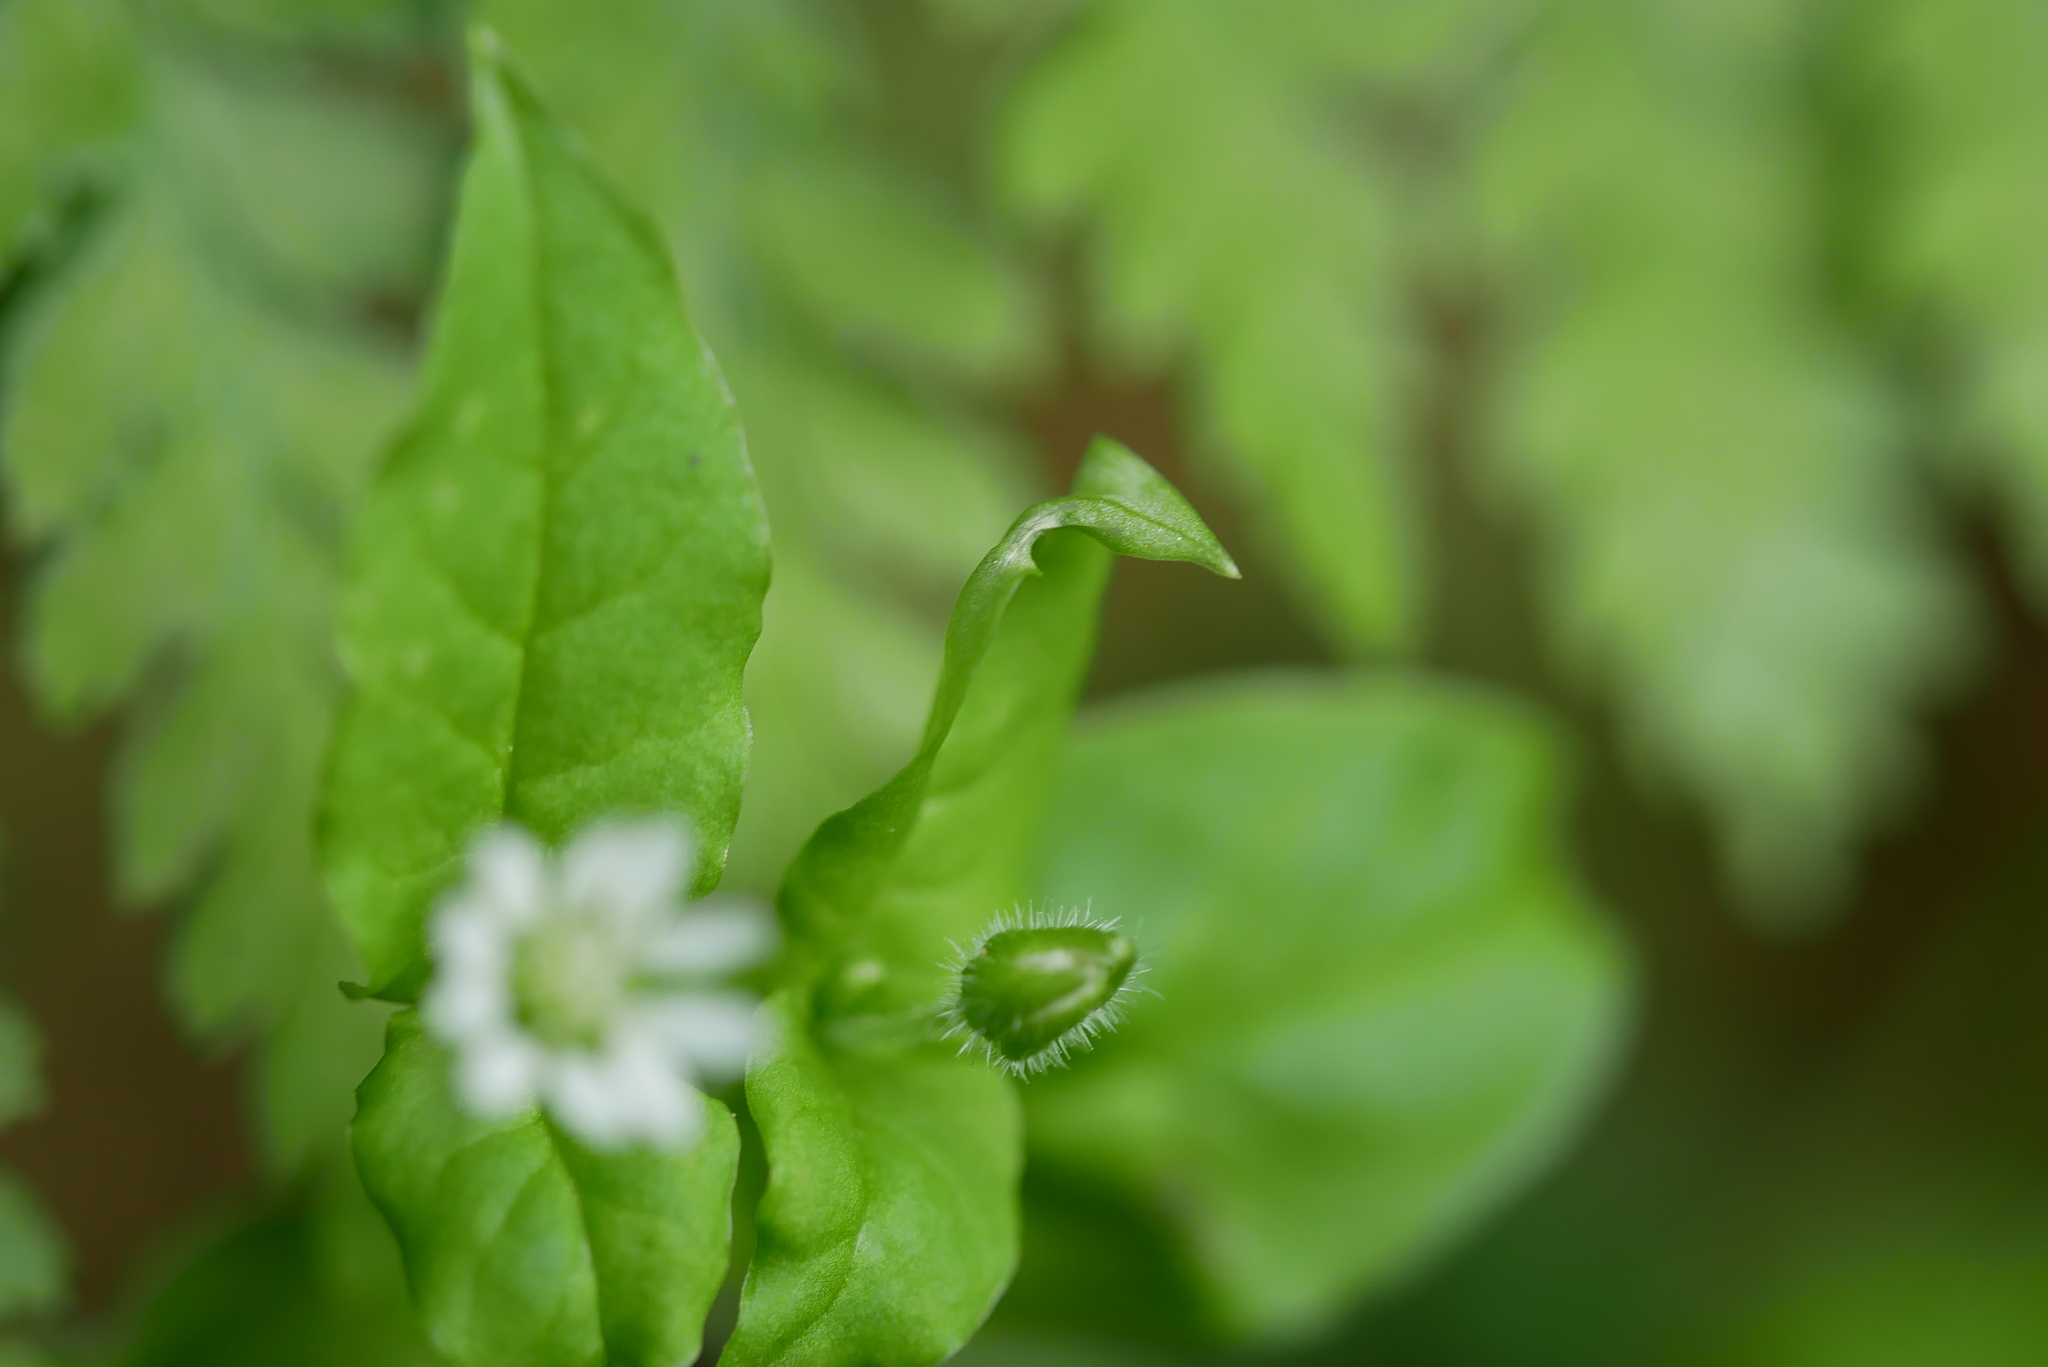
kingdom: Plantae
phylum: Tracheophyta
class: Magnoliopsida
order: Caryophyllales
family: Caryophyllaceae
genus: Stellaria
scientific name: Stellaria aquatica
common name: Water chickweed
